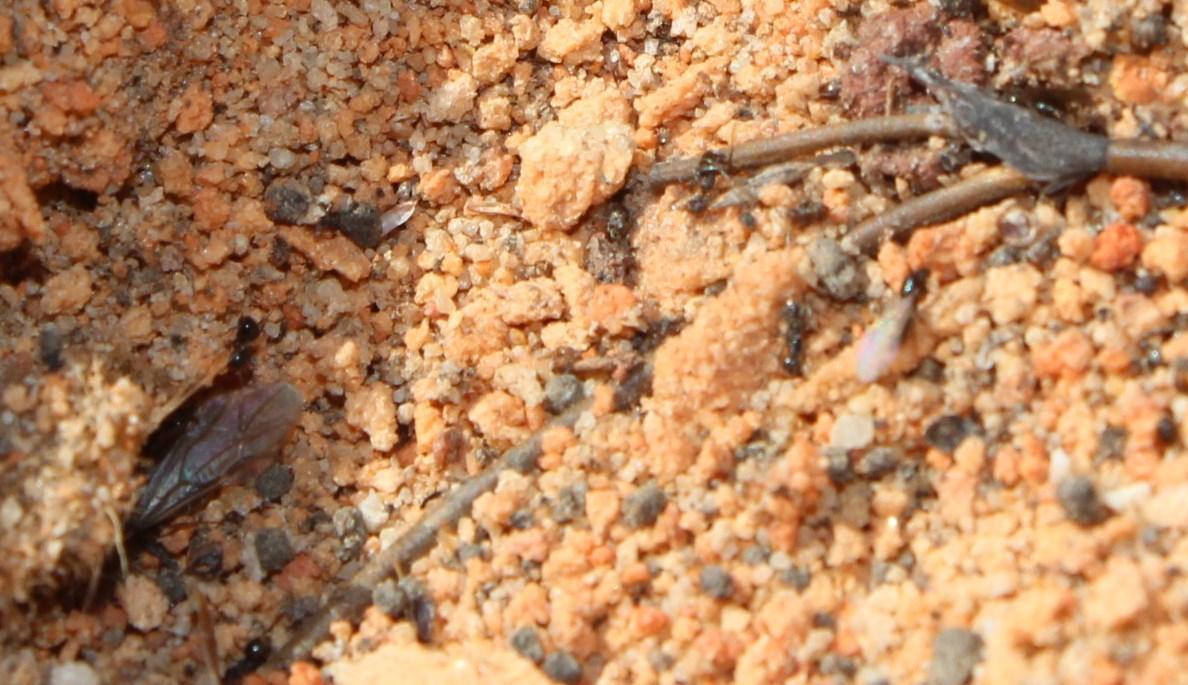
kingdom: Animalia
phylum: Arthropoda
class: Insecta
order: Hymenoptera
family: Formicidae
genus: Lepisiota
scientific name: Lepisiota capensis
